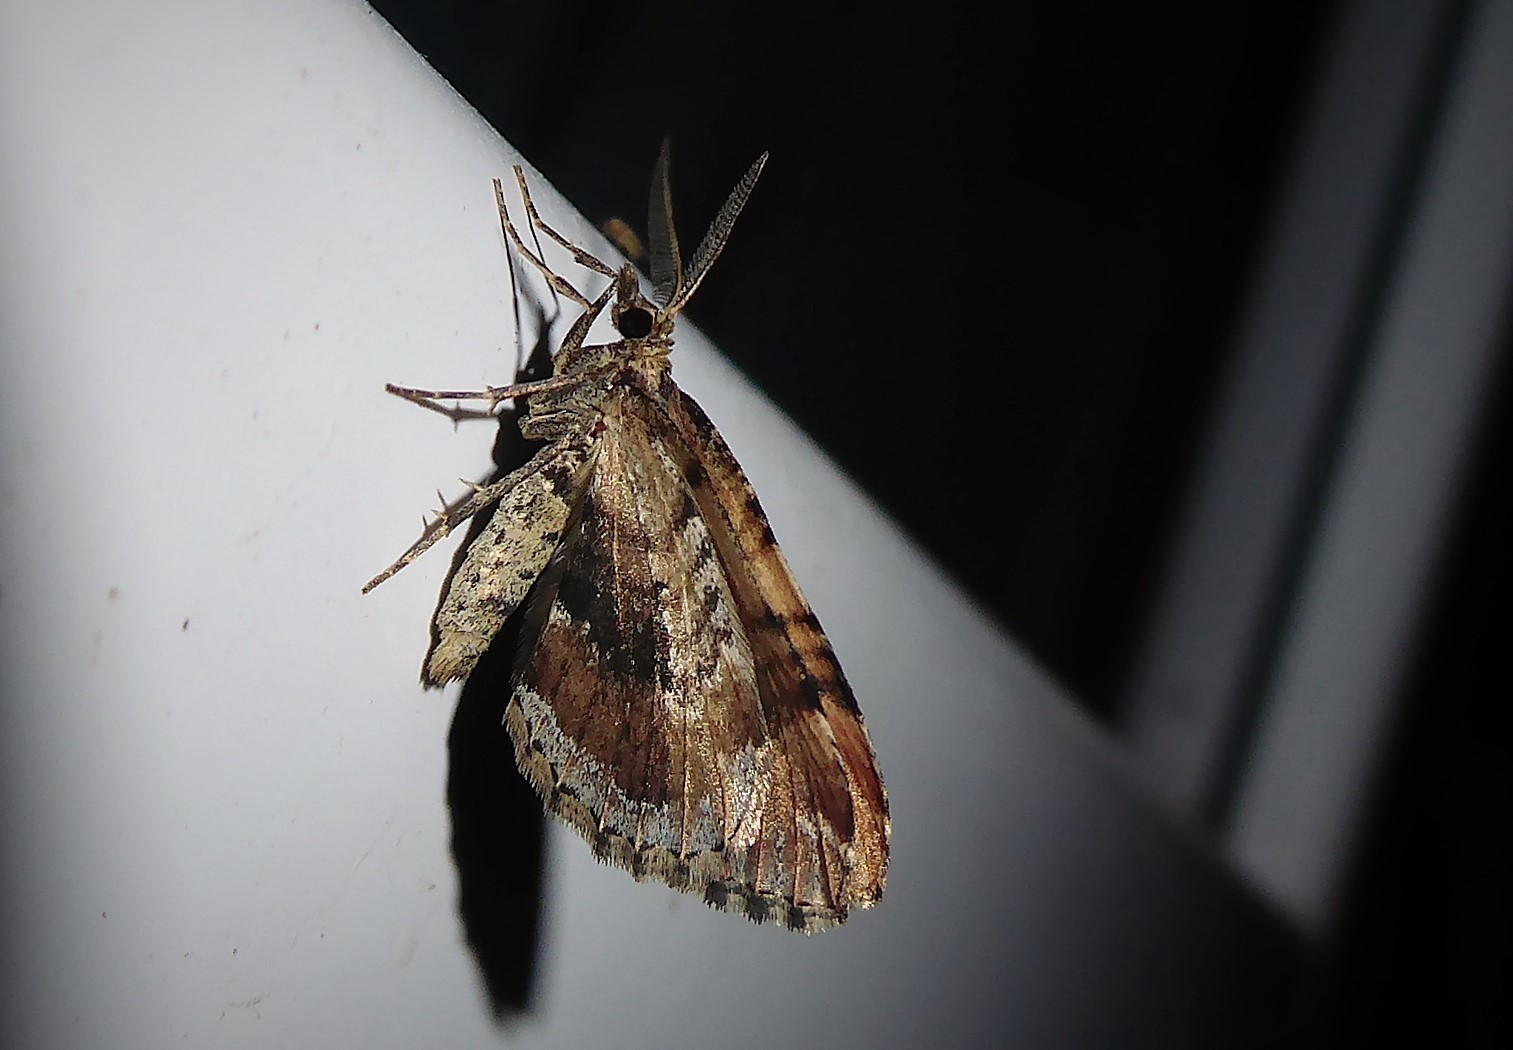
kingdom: Animalia
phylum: Arthropoda
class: Insecta
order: Lepidoptera
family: Geometridae
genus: Asaphodes
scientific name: Asaphodes aegrota
